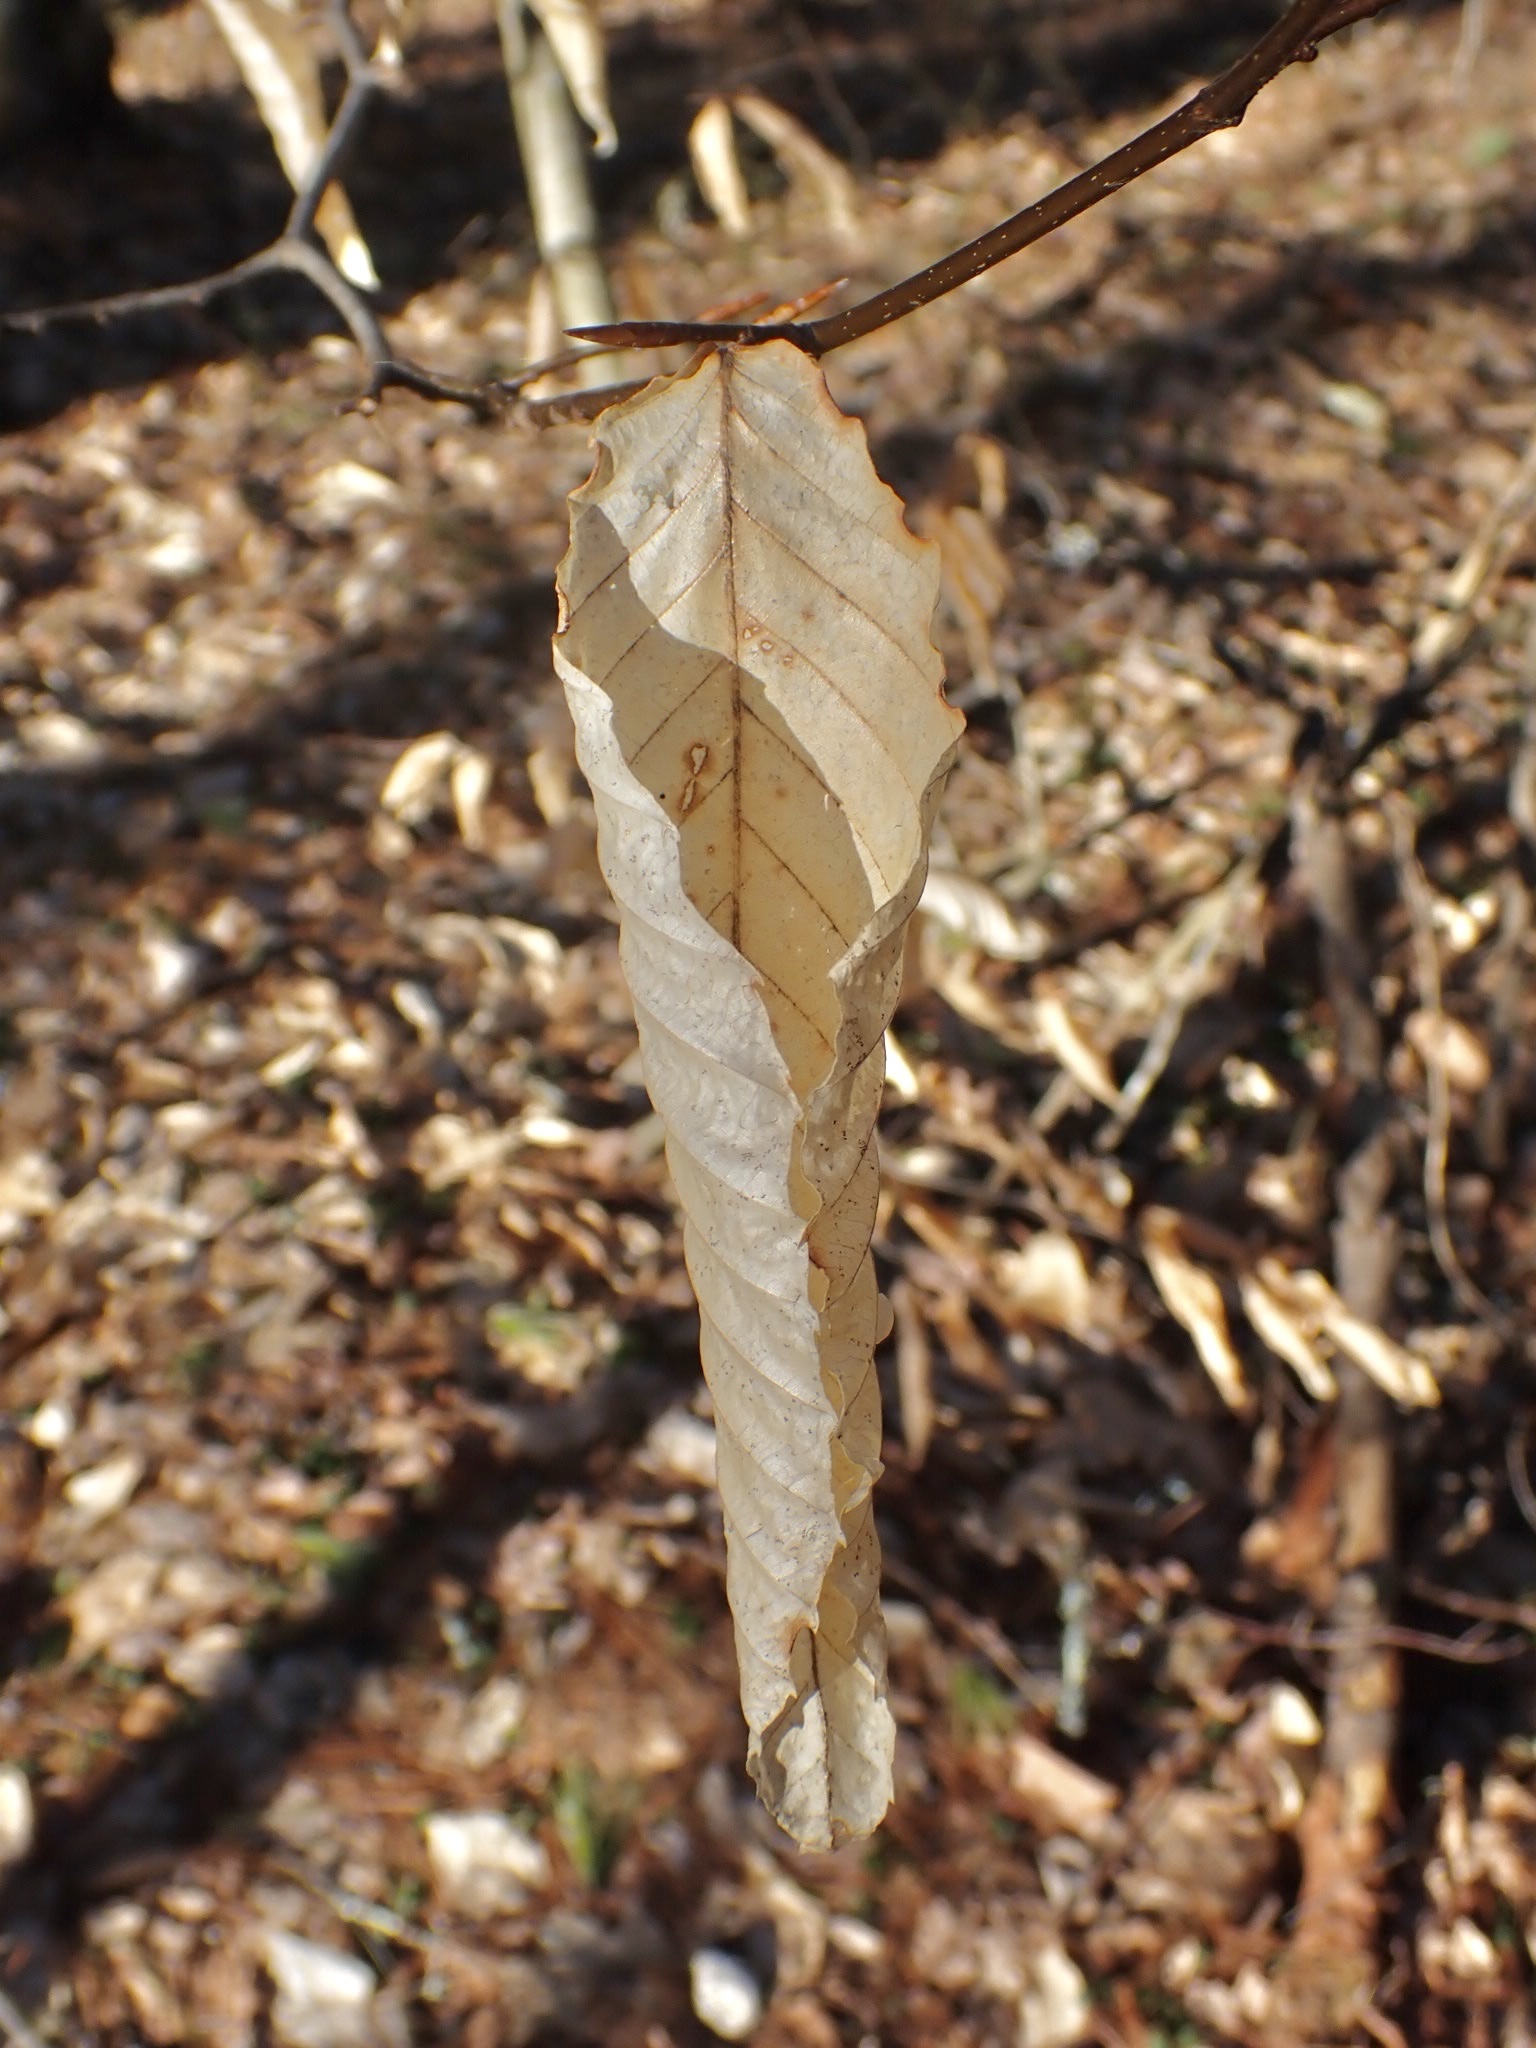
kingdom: Plantae
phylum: Tracheophyta
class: Magnoliopsida
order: Fagales
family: Fagaceae
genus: Fagus
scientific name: Fagus grandifolia
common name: American beech
